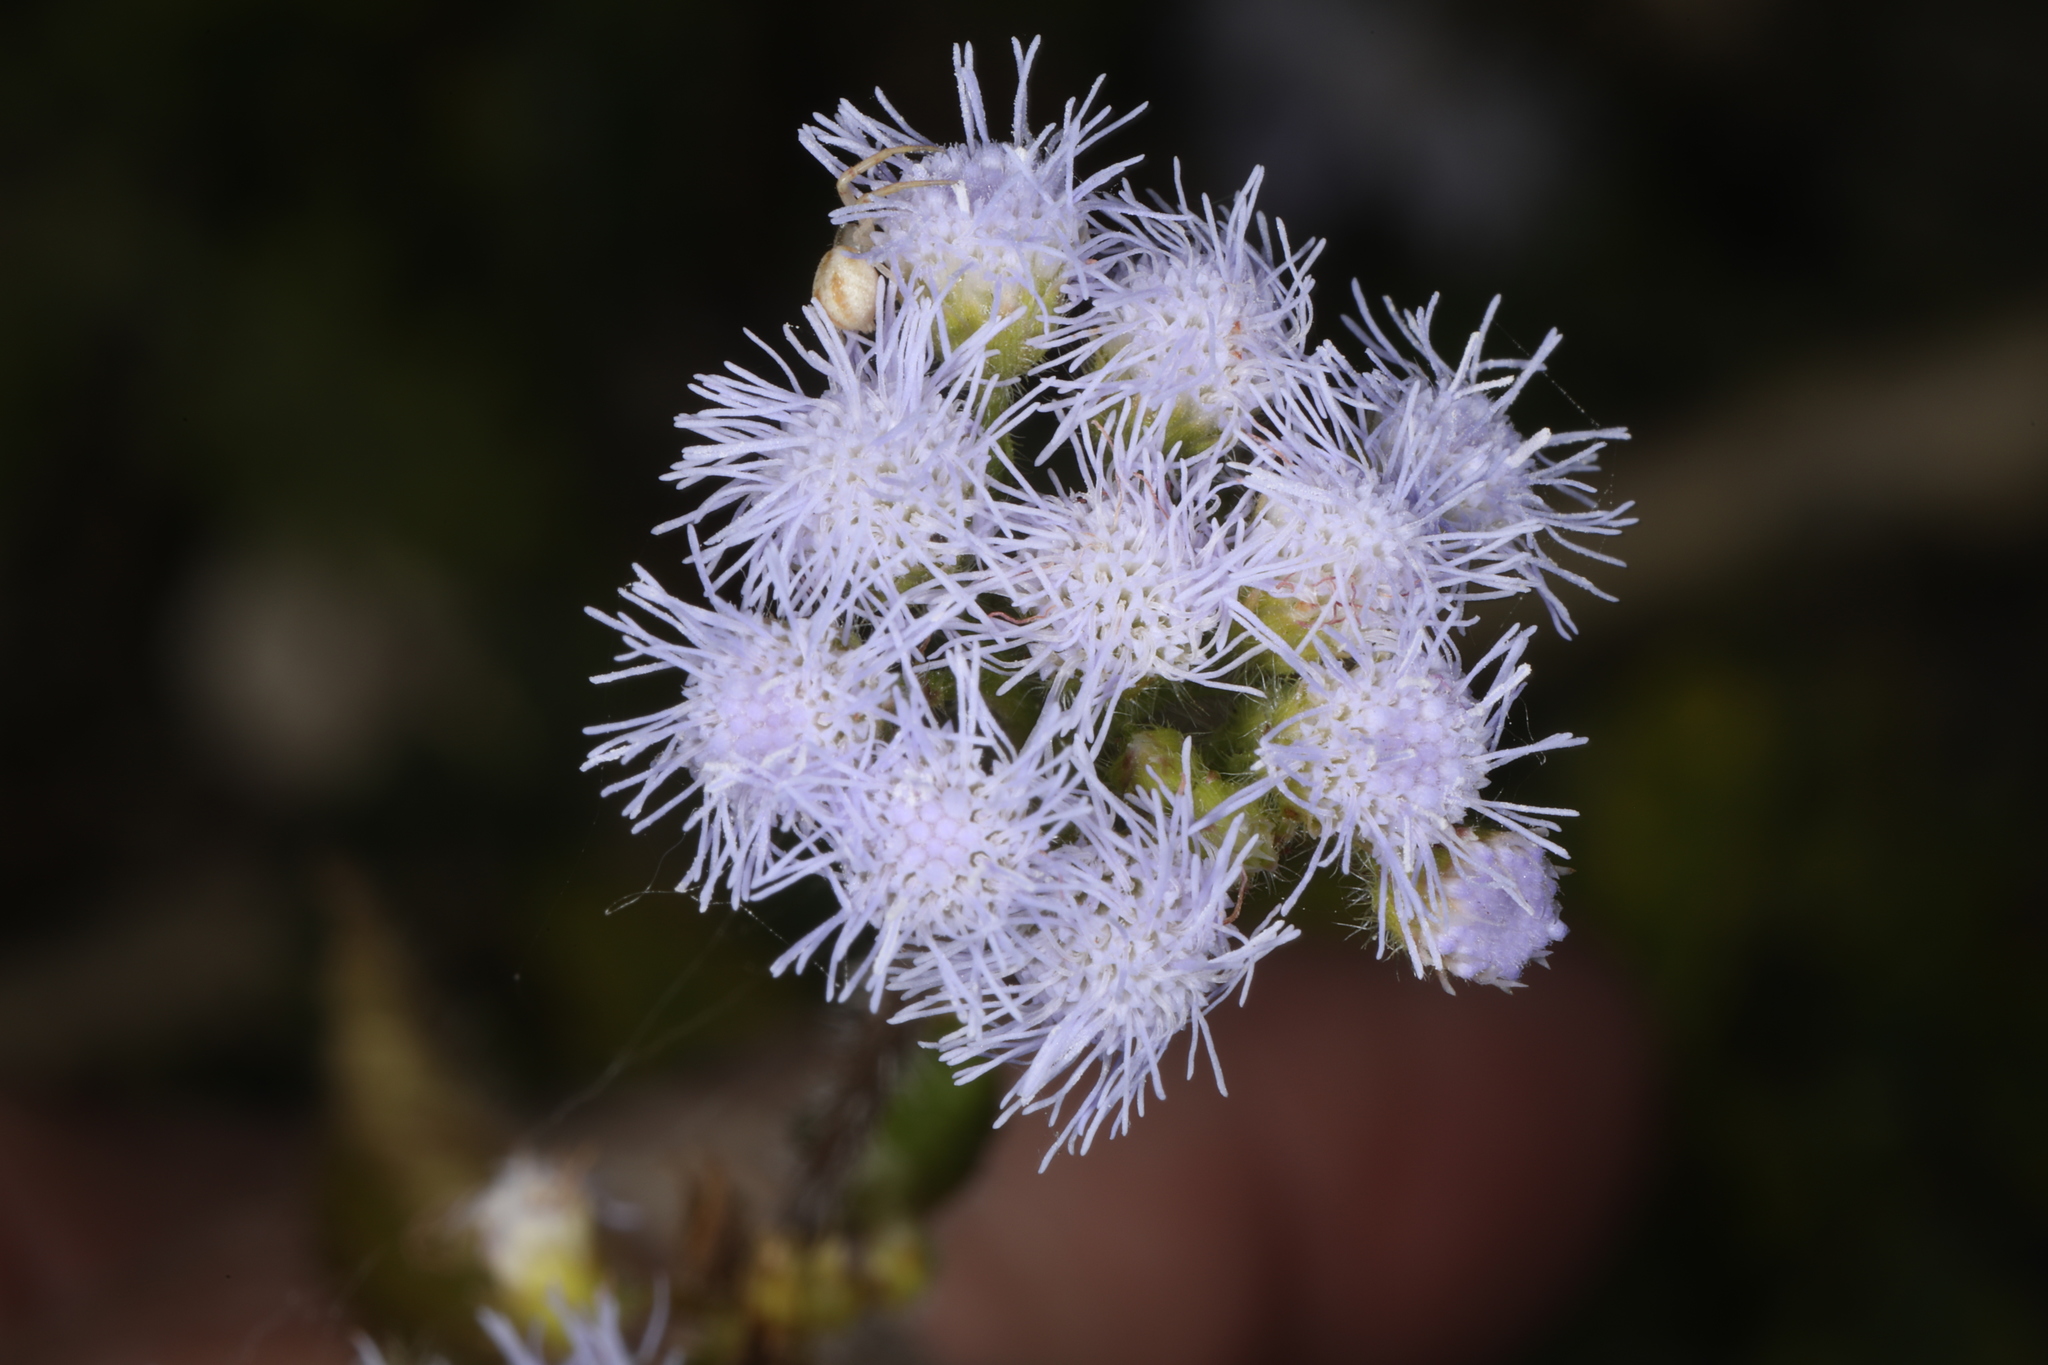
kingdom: Plantae
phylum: Tracheophyta
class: Magnoliopsida
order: Asterales
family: Asteraceae
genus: Ageratum
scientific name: Ageratum houstonianum
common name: Bluemink
